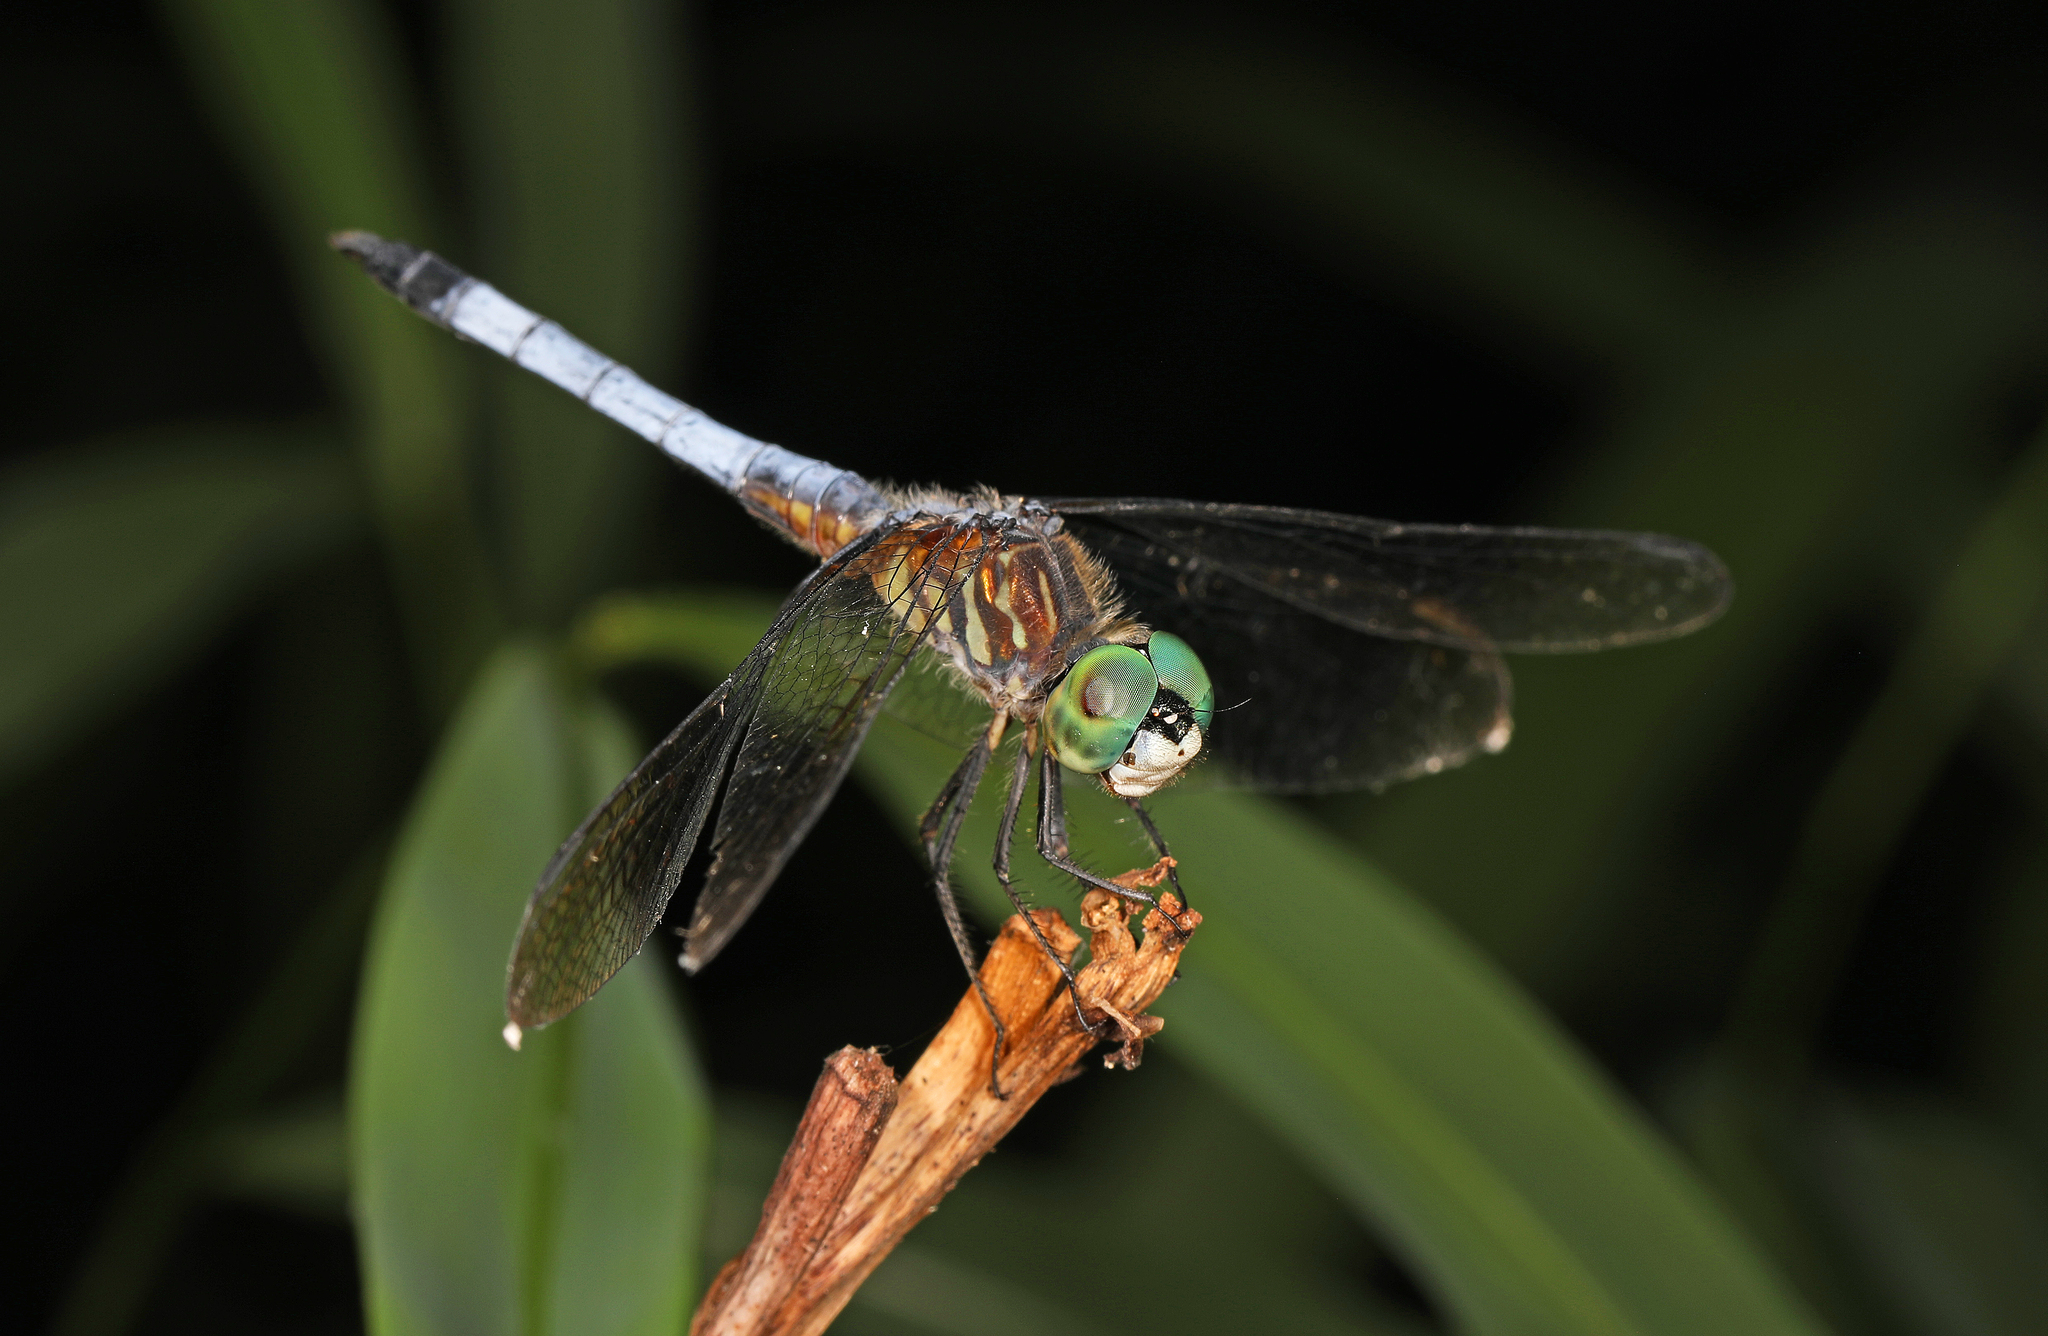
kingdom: Animalia
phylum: Arthropoda
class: Insecta
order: Odonata
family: Libellulidae
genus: Pachydiplax
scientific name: Pachydiplax longipennis
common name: Blue dasher
